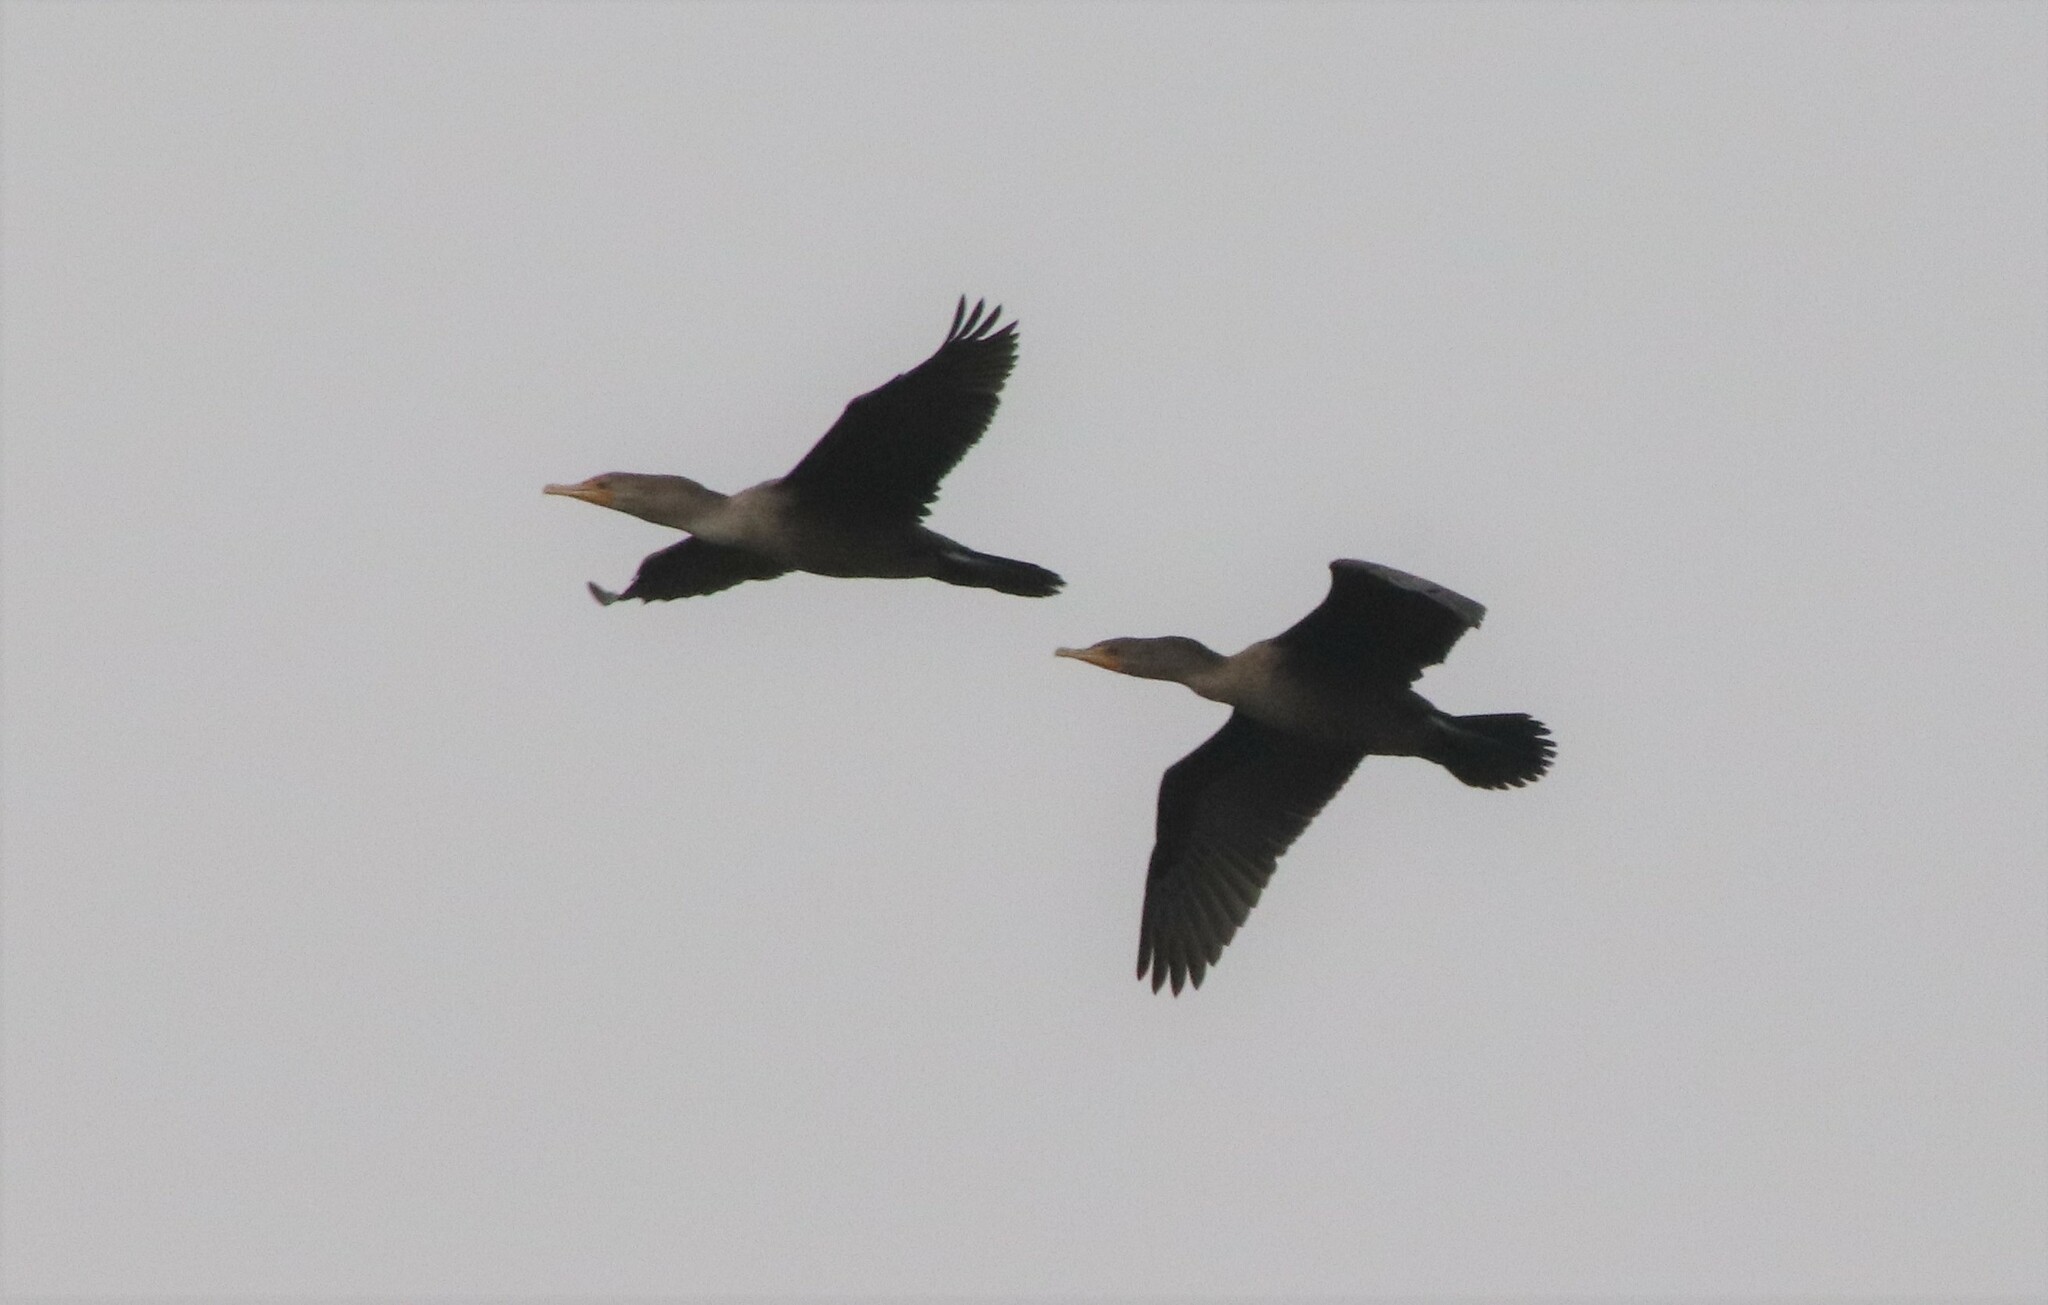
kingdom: Animalia
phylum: Chordata
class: Aves
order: Suliformes
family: Phalacrocoracidae
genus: Phalacrocorax
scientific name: Phalacrocorax auritus
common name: Double-crested cormorant
